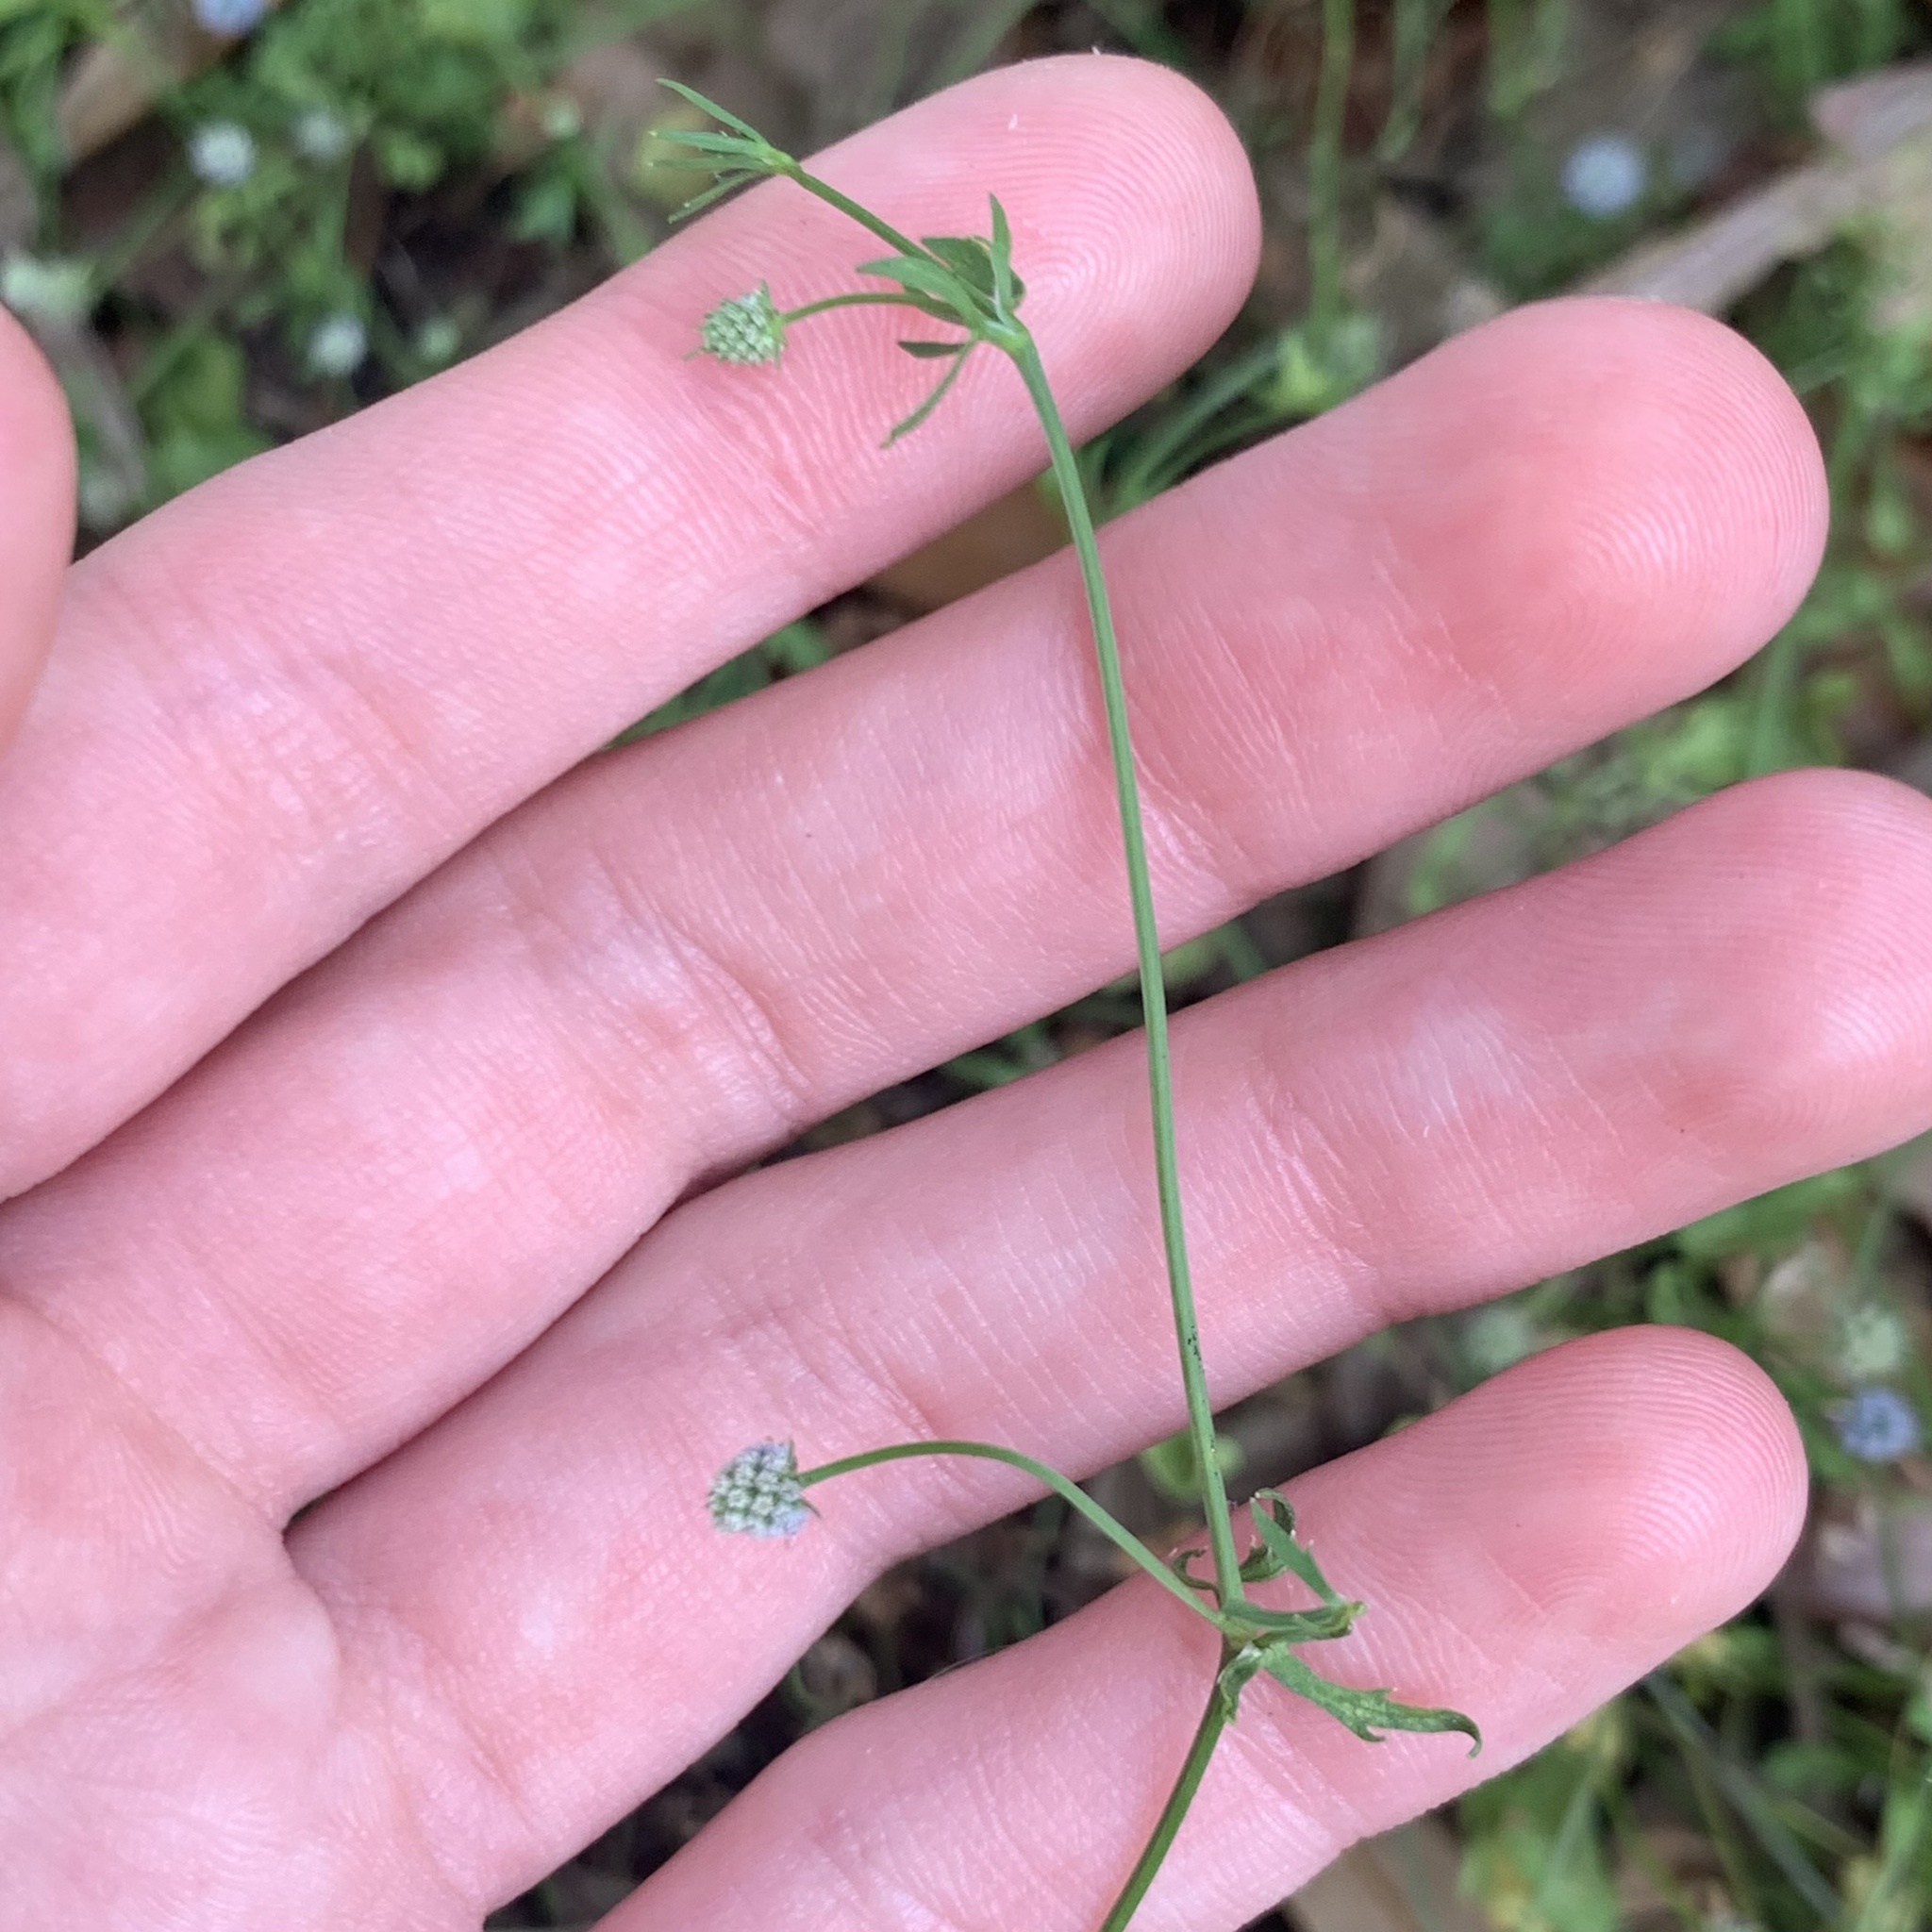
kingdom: Plantae
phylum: Tracheophyta
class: Magnoliopsida
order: Apiales
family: Apiaceae
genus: Eryngium
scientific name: Eryngium prostratum
